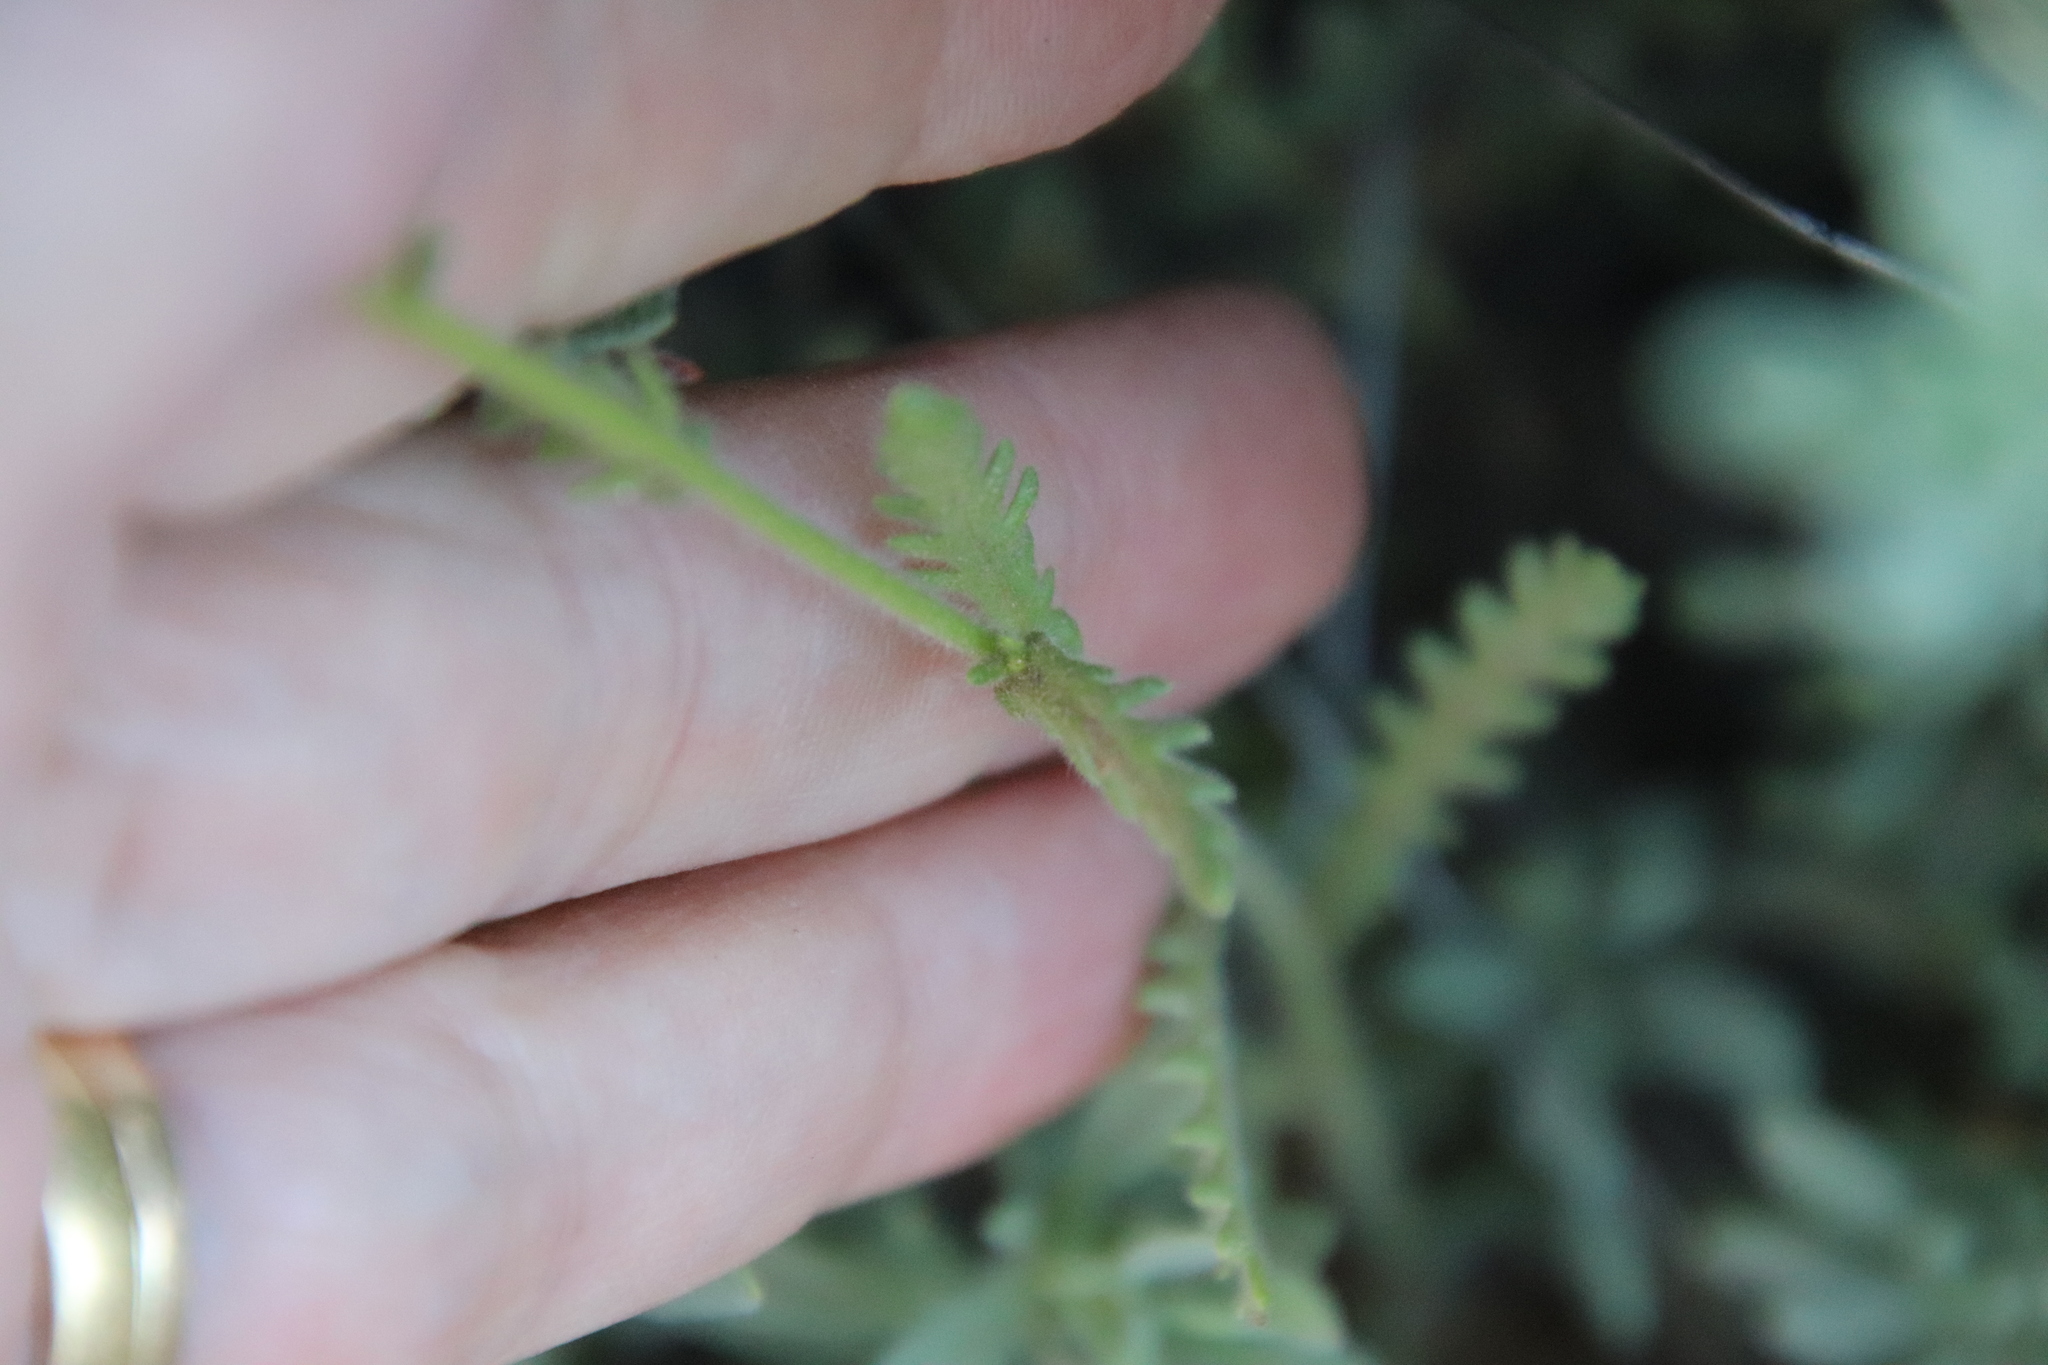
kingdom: Plantae
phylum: Tracheophyta
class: Magnoliopsida
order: Boraginales
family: Hydrophyllaceae
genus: Emmenanthe
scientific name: Emmenanthe penduliflora
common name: Whispering-bells
